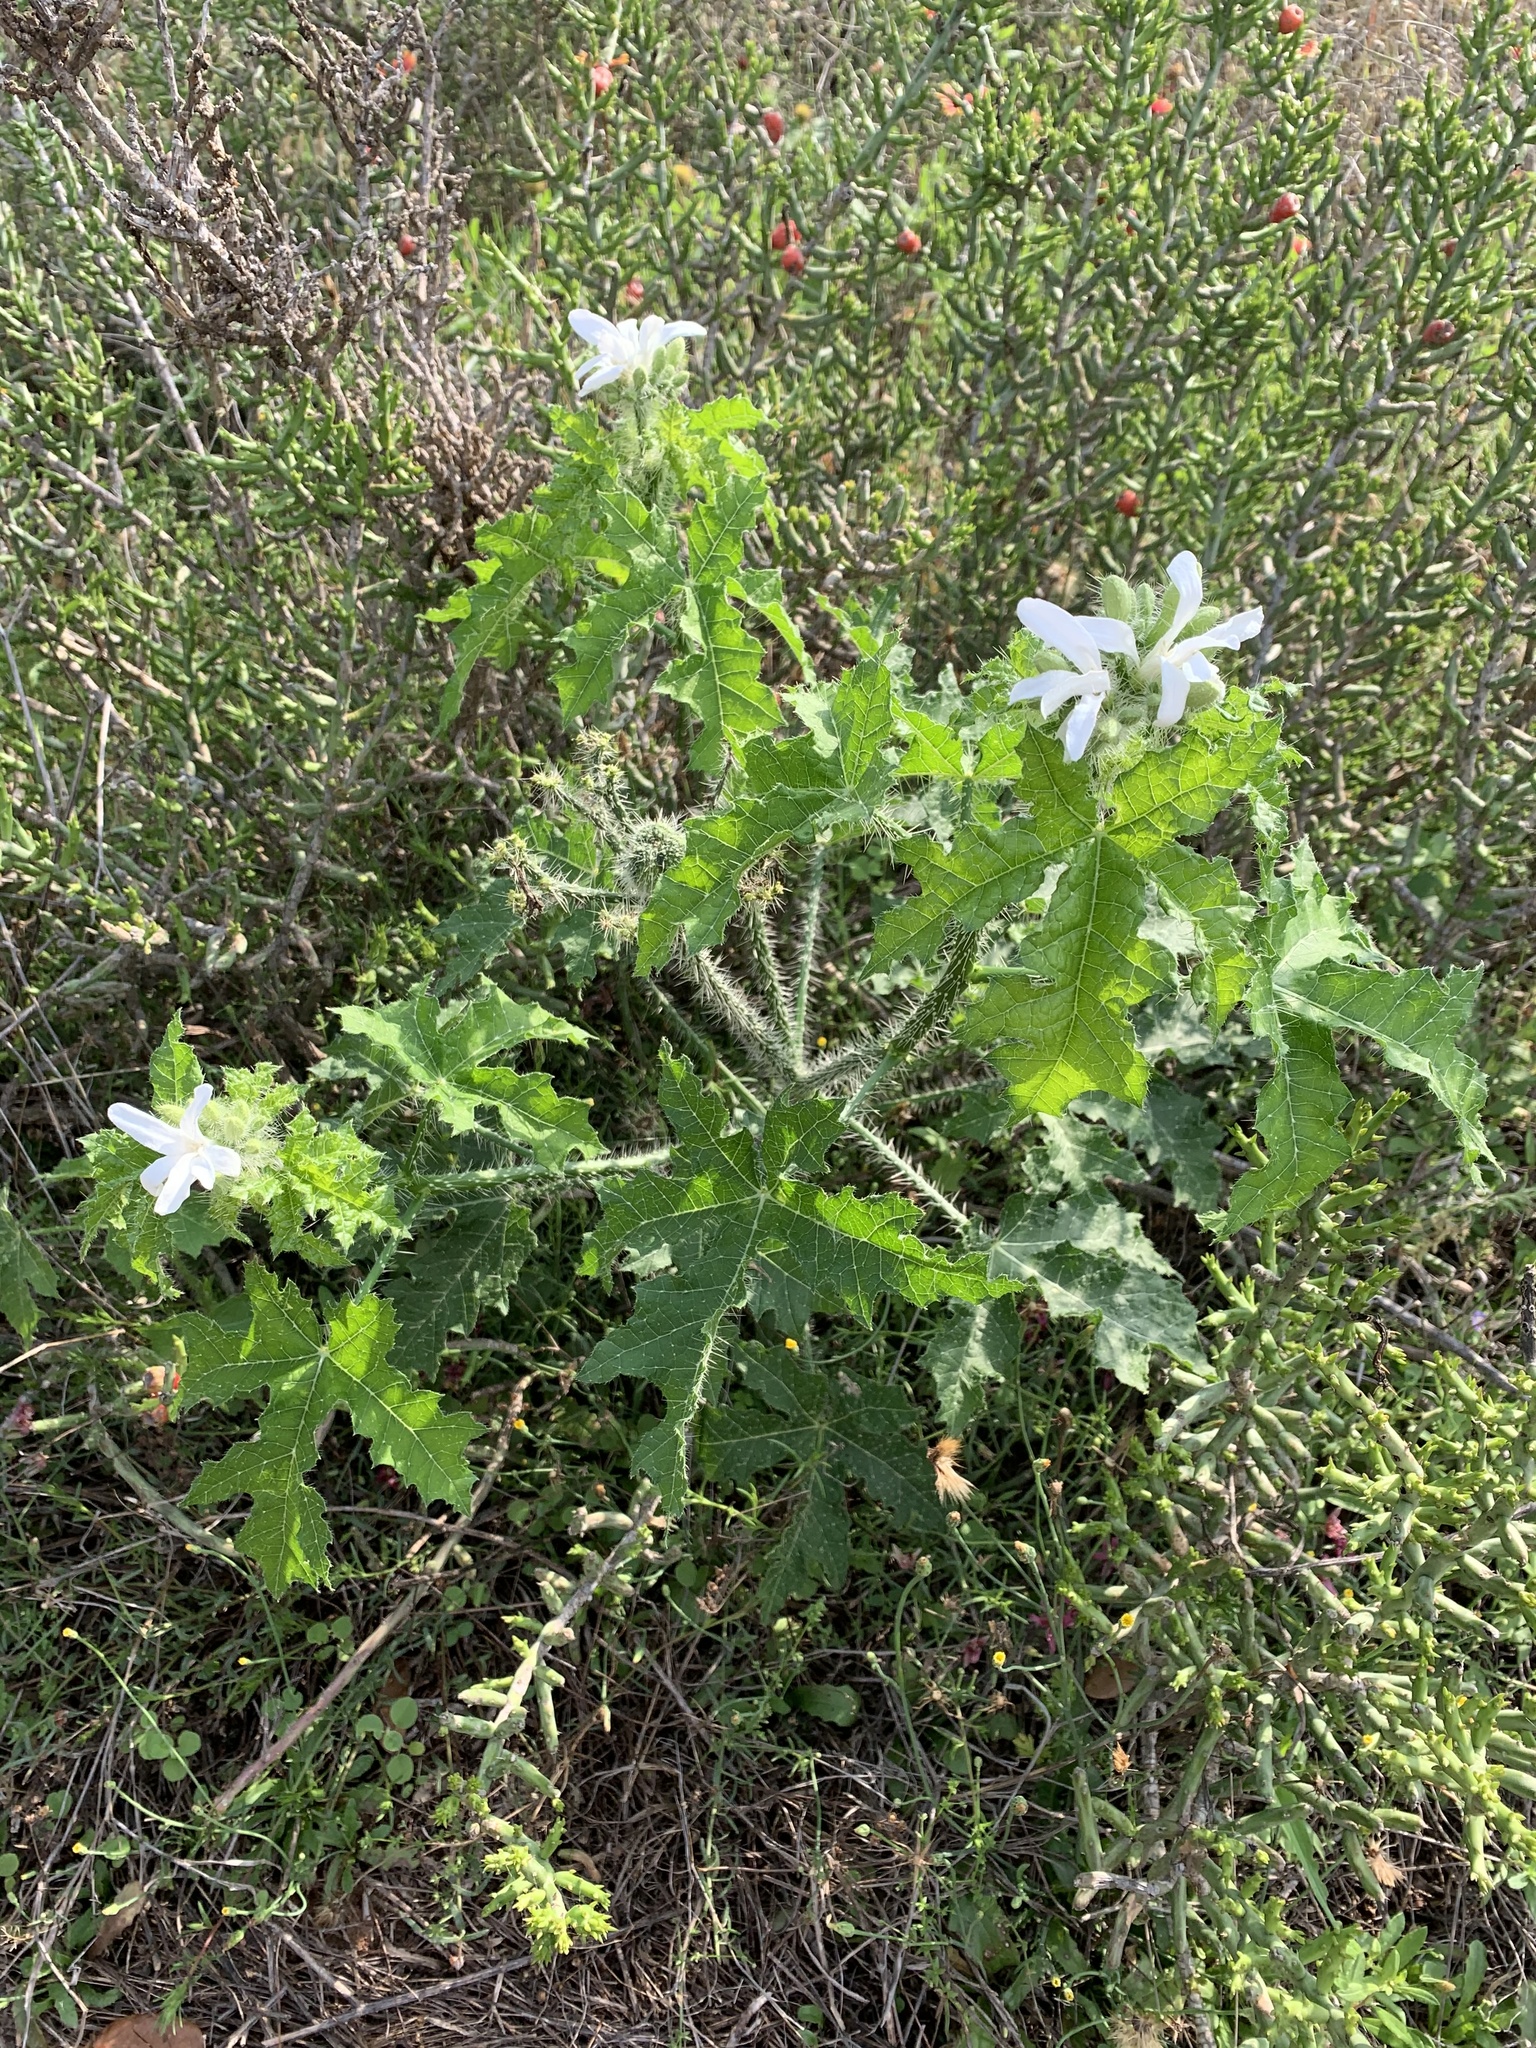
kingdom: Plantae
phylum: Tracheophyta
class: Magnoliopsida
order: Malpighiales
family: Euphorbiaceae
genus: Cnidoscolus
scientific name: Cnidoscolus texanus
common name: Texas bull-nettle
